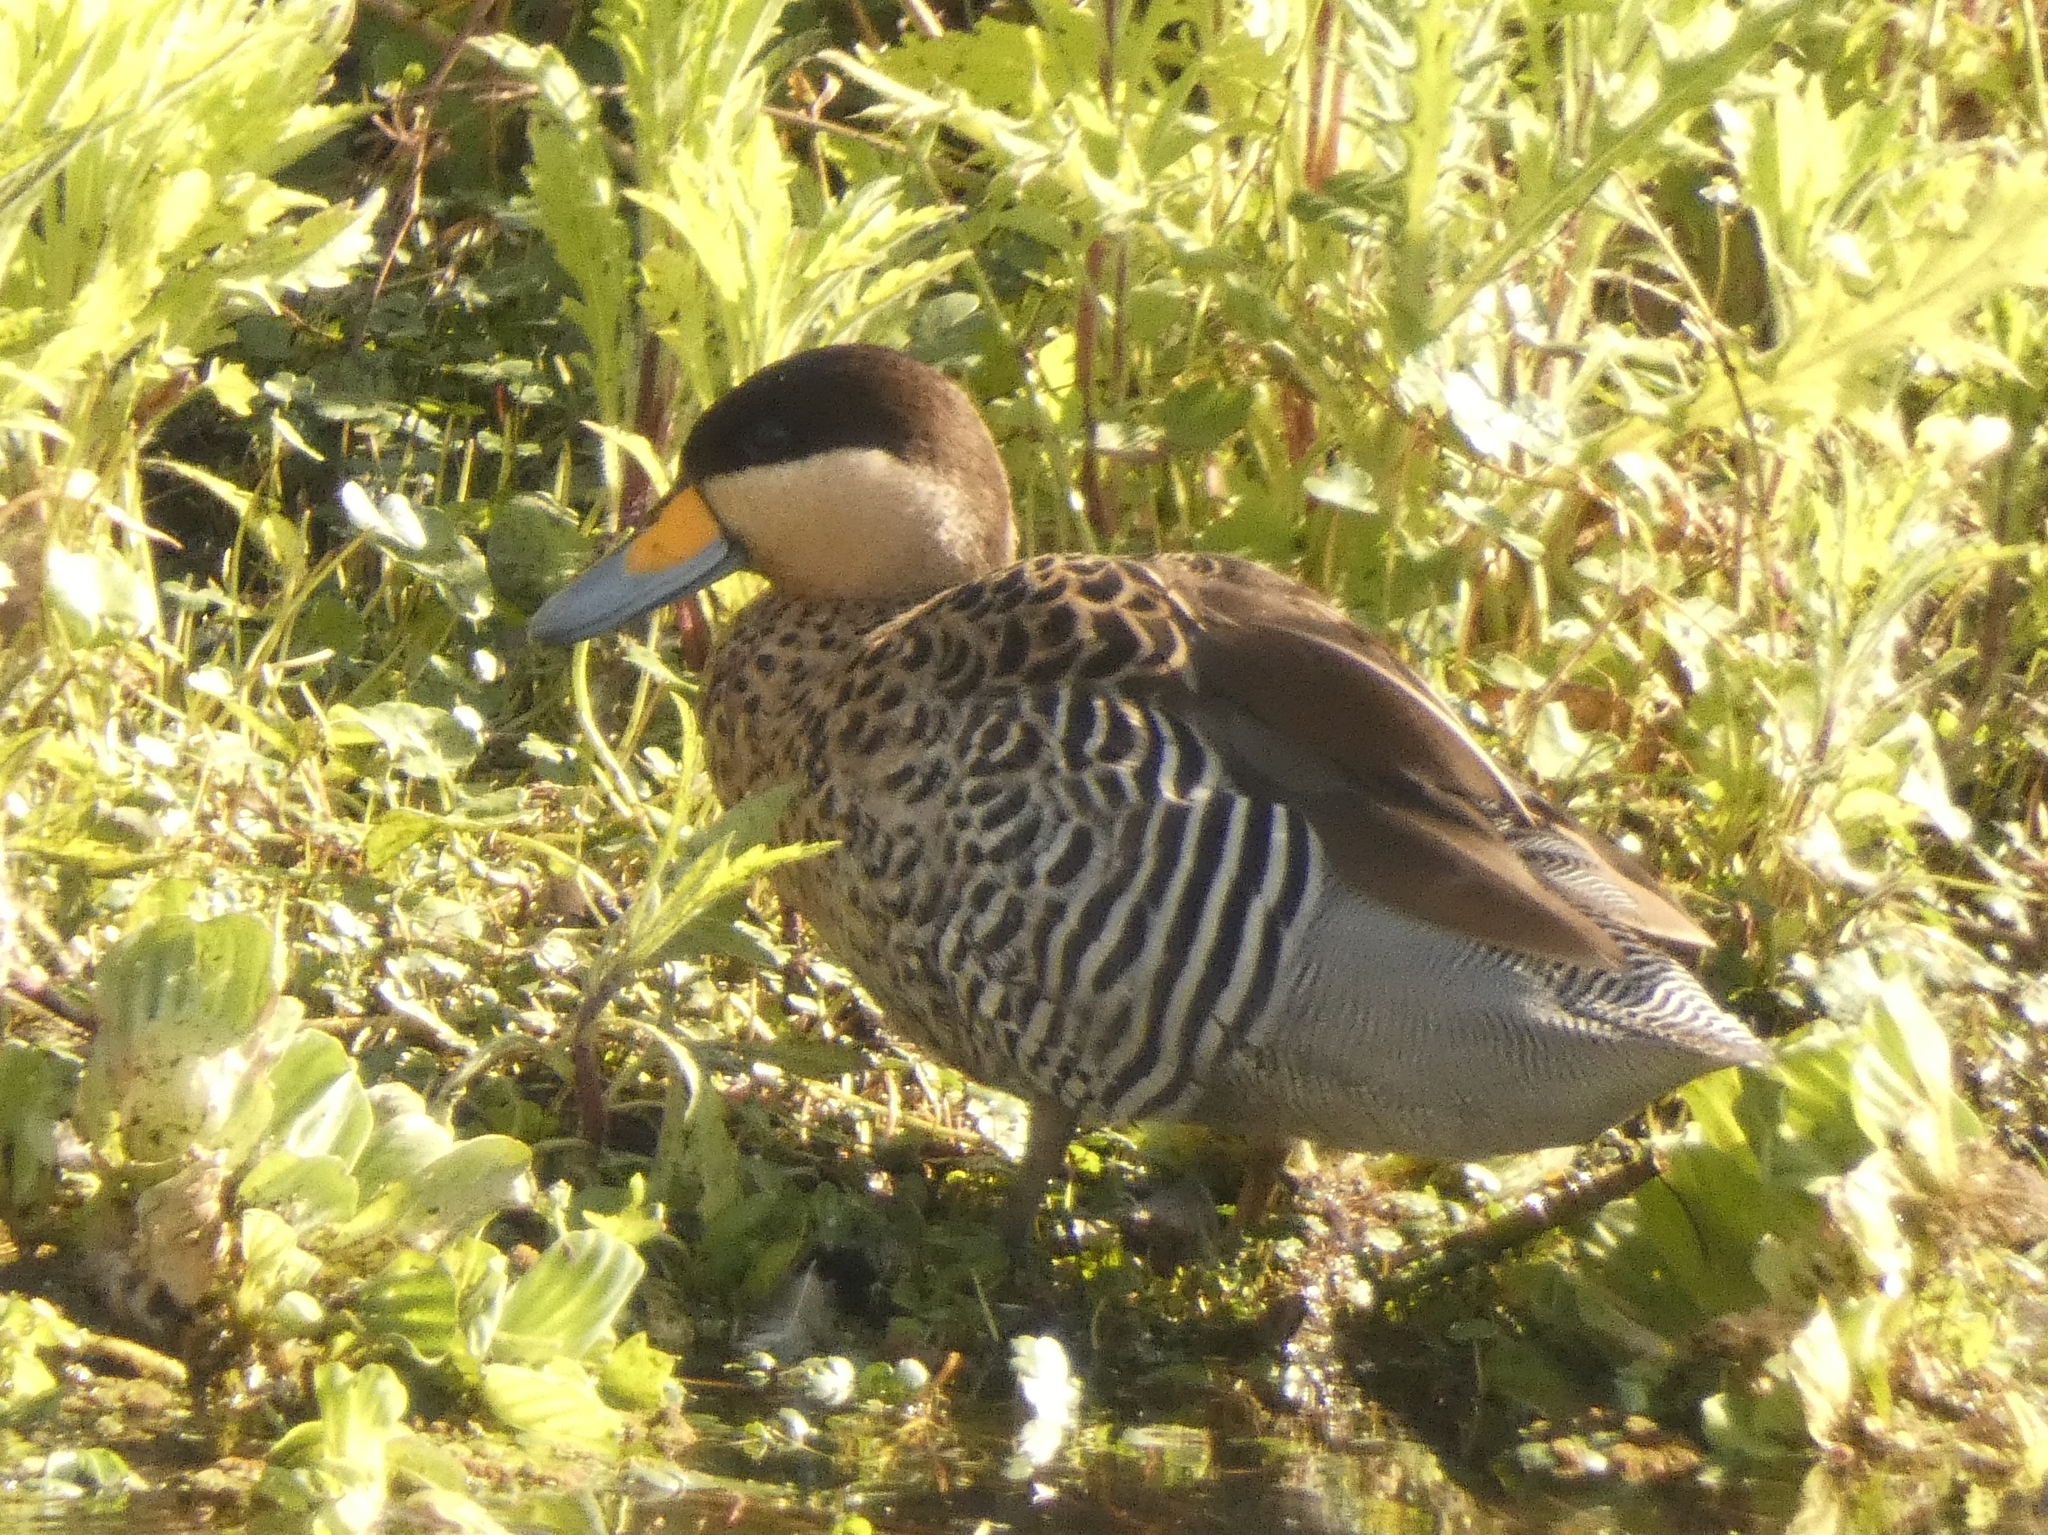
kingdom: Animalia
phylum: Chordata
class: Aves
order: Anseriformes
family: Anatidae
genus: Spatula
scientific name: Spatula versicolor
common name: Silver teal
